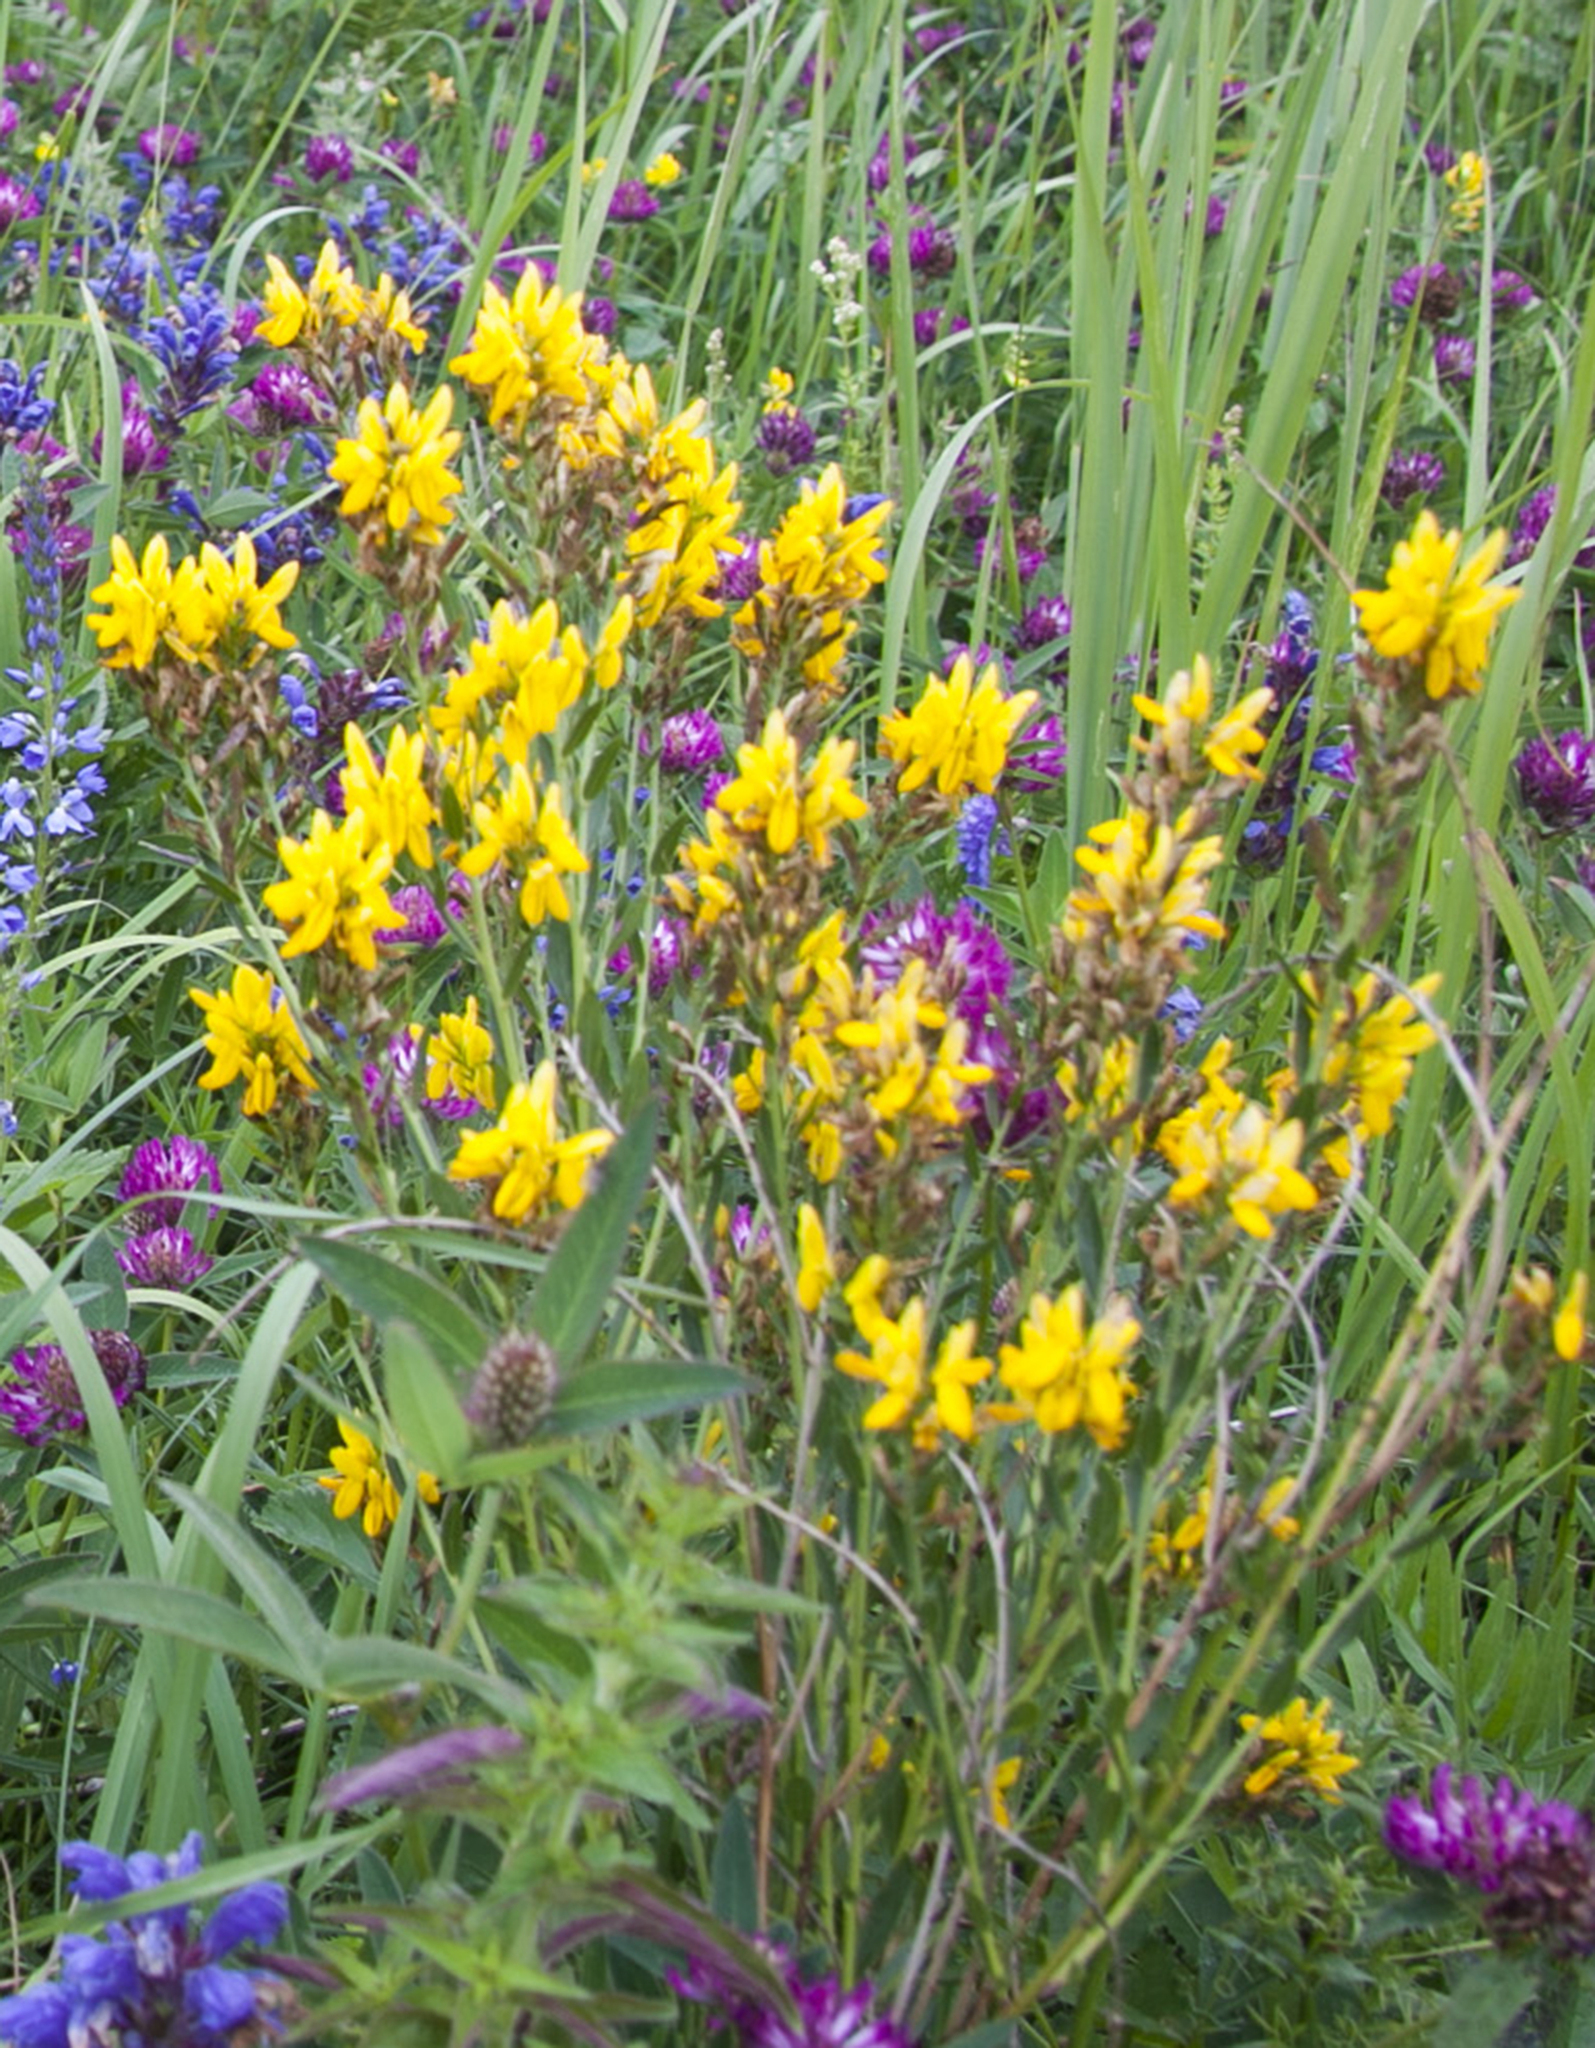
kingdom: Plantae
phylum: Tracheophyta
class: Magnoliopsida
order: Fabales
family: Fabaceae
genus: Genista
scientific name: Genista tinctoria
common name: Dyer's greenweed
